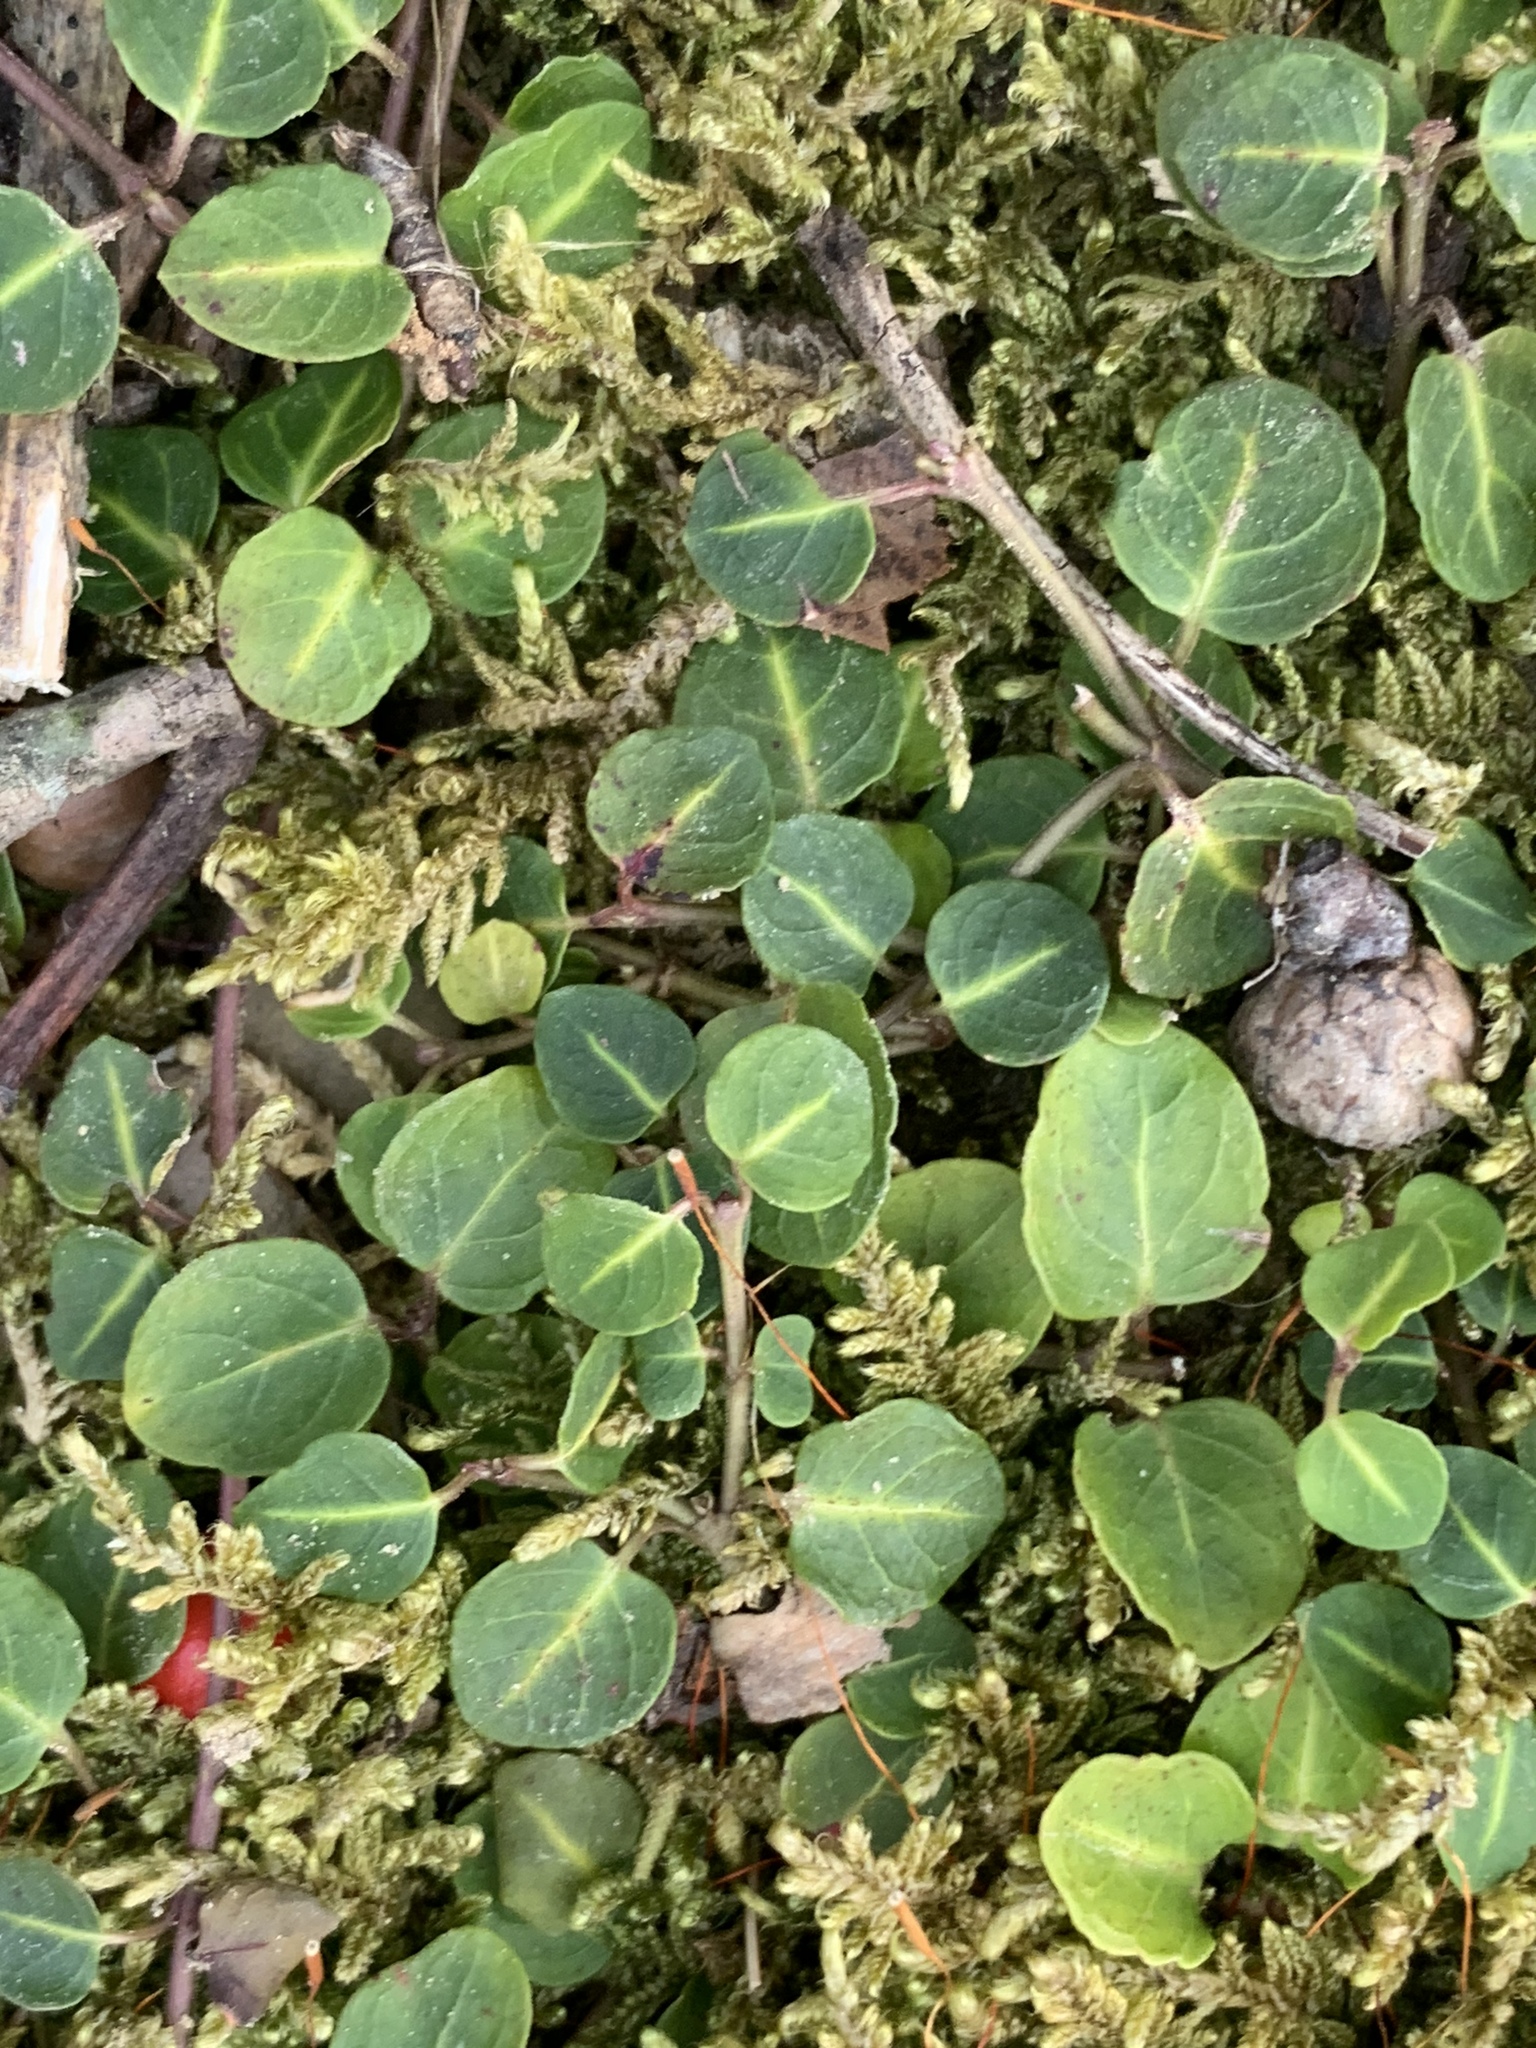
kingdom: Plantae
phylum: Tracheophyta
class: Magnoliopsida
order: Gentianales
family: Rubiaceae
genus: Mitchella
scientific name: Mitchella repens
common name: Partridge-berry
